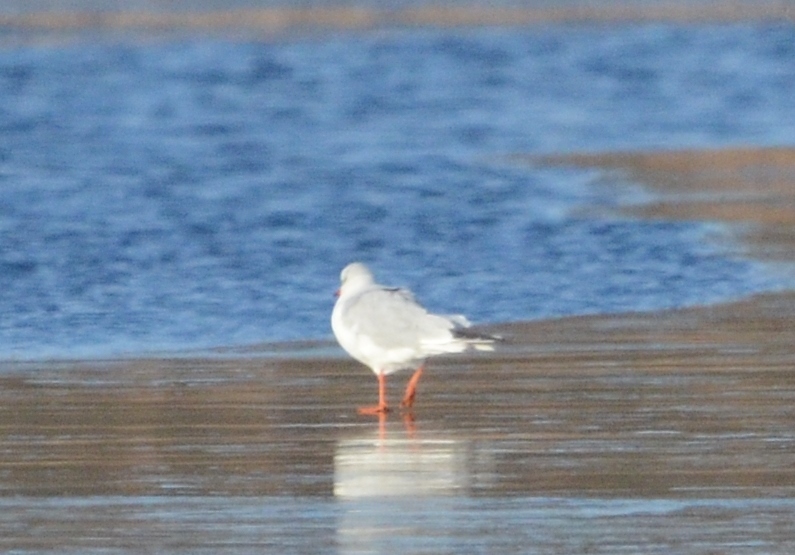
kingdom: Animalia
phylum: Chordata
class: Aves
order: Charadriiformes
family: Laridae
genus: Chroicocephalus
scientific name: Chroicocephalus ridibundus
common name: Black-headed gull
